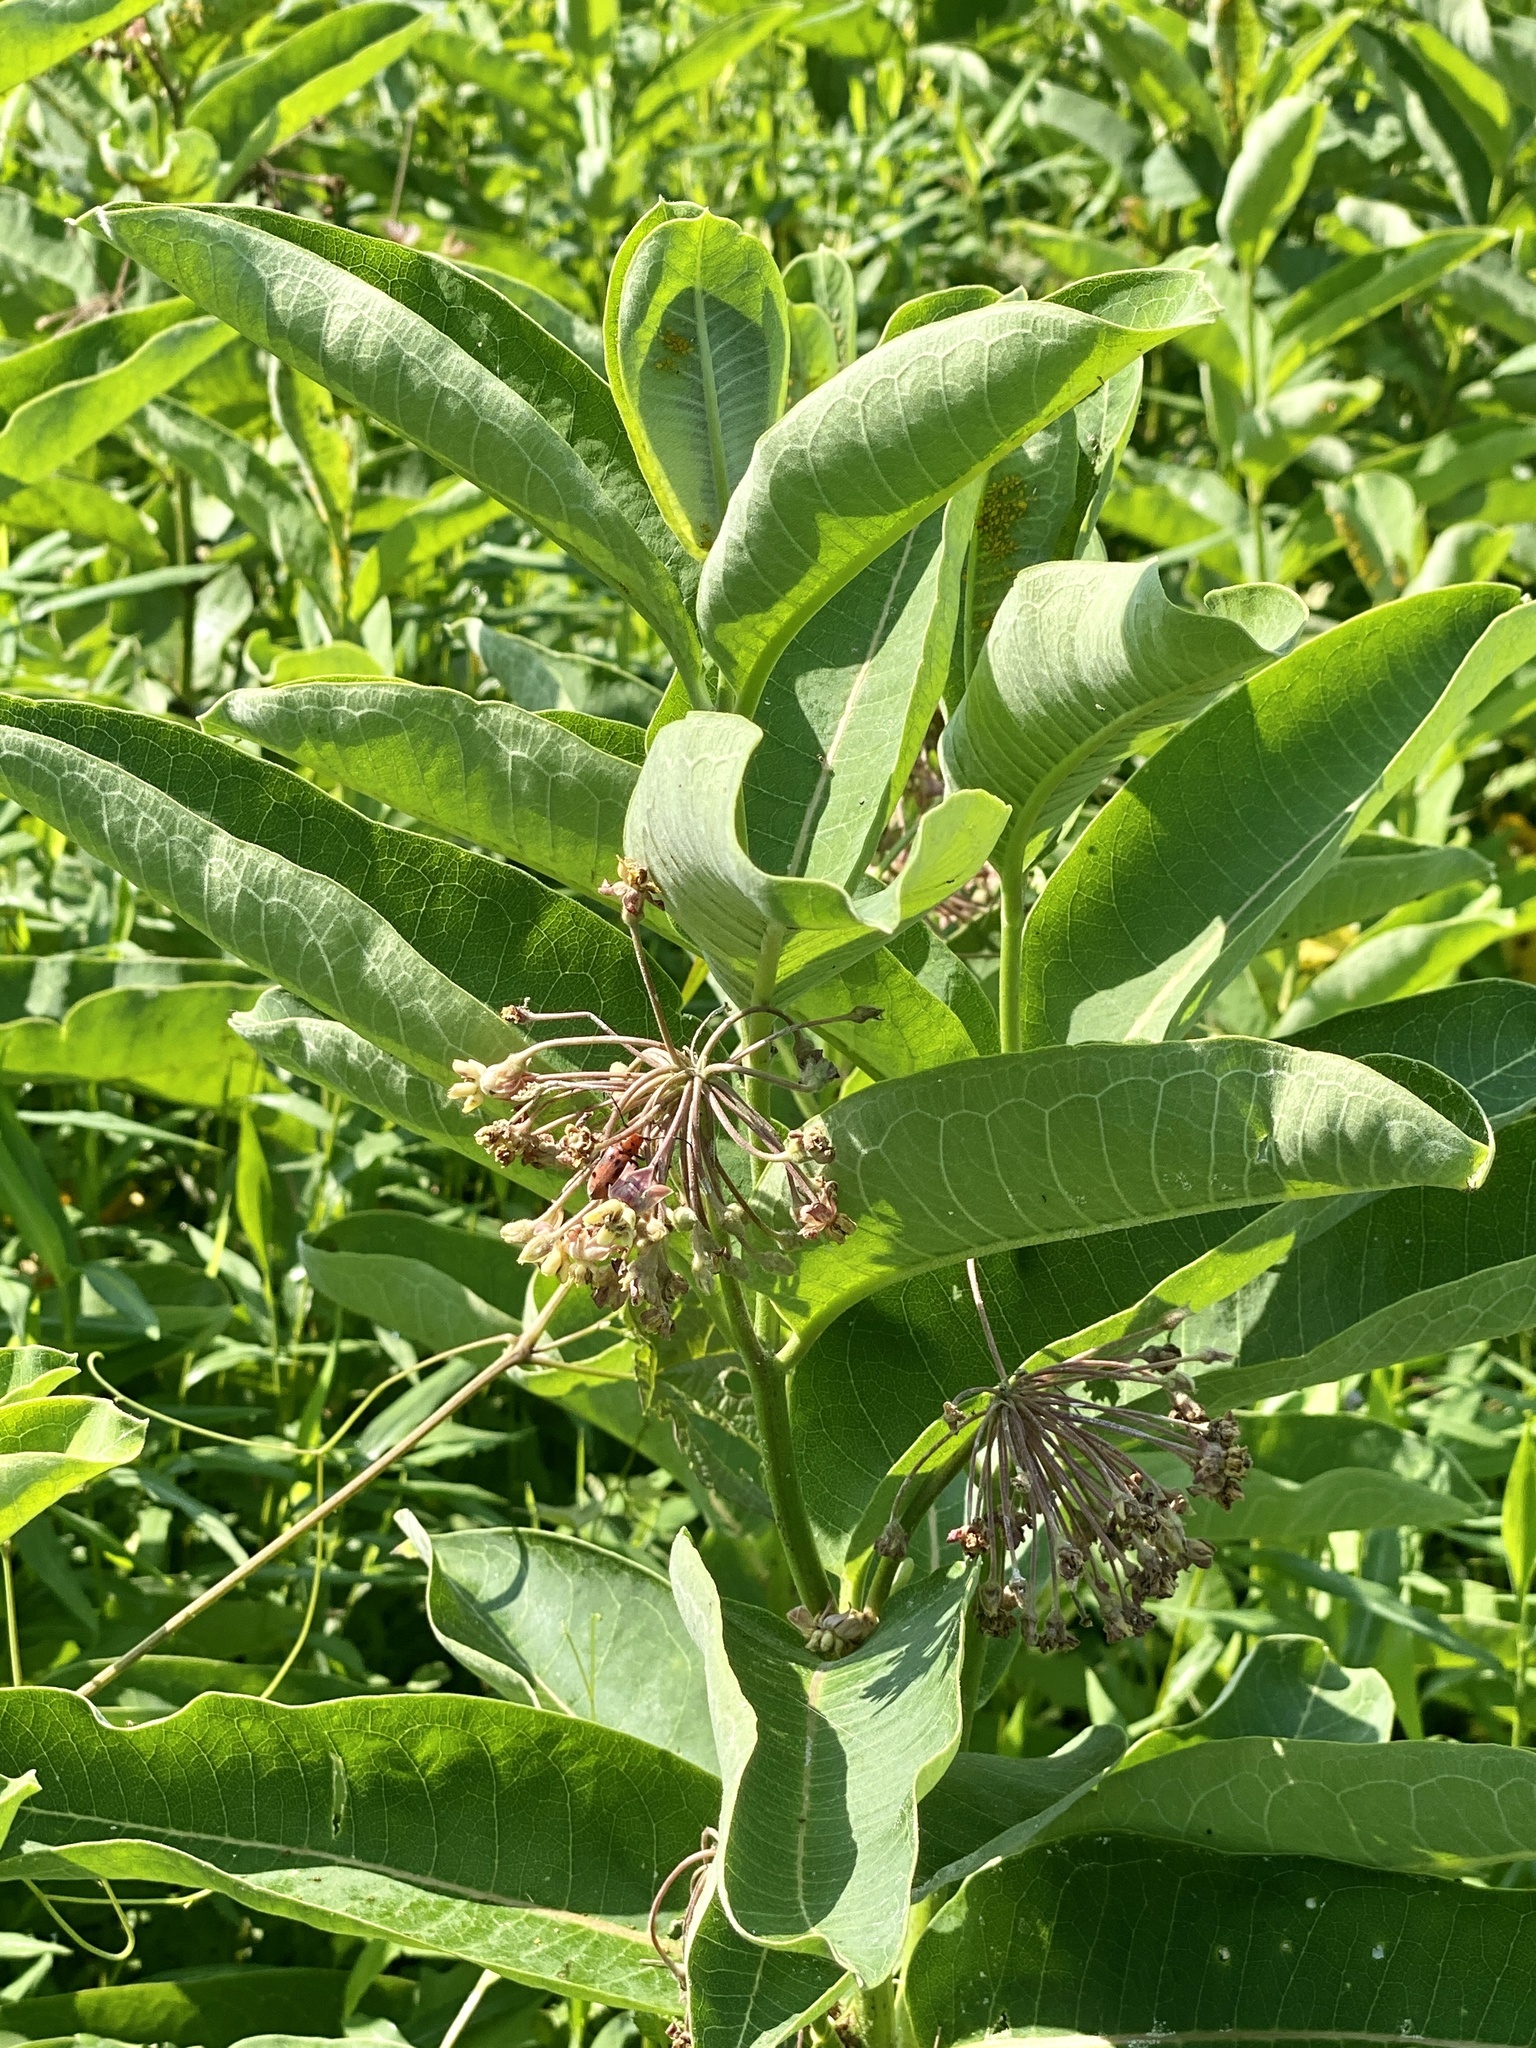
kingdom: Plantae
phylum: Tracheophyta
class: Magnoliopsida
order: Gentianales
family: Apocynaceae
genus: Asclepias
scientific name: Asclepias syriaca
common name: Common milkweed
